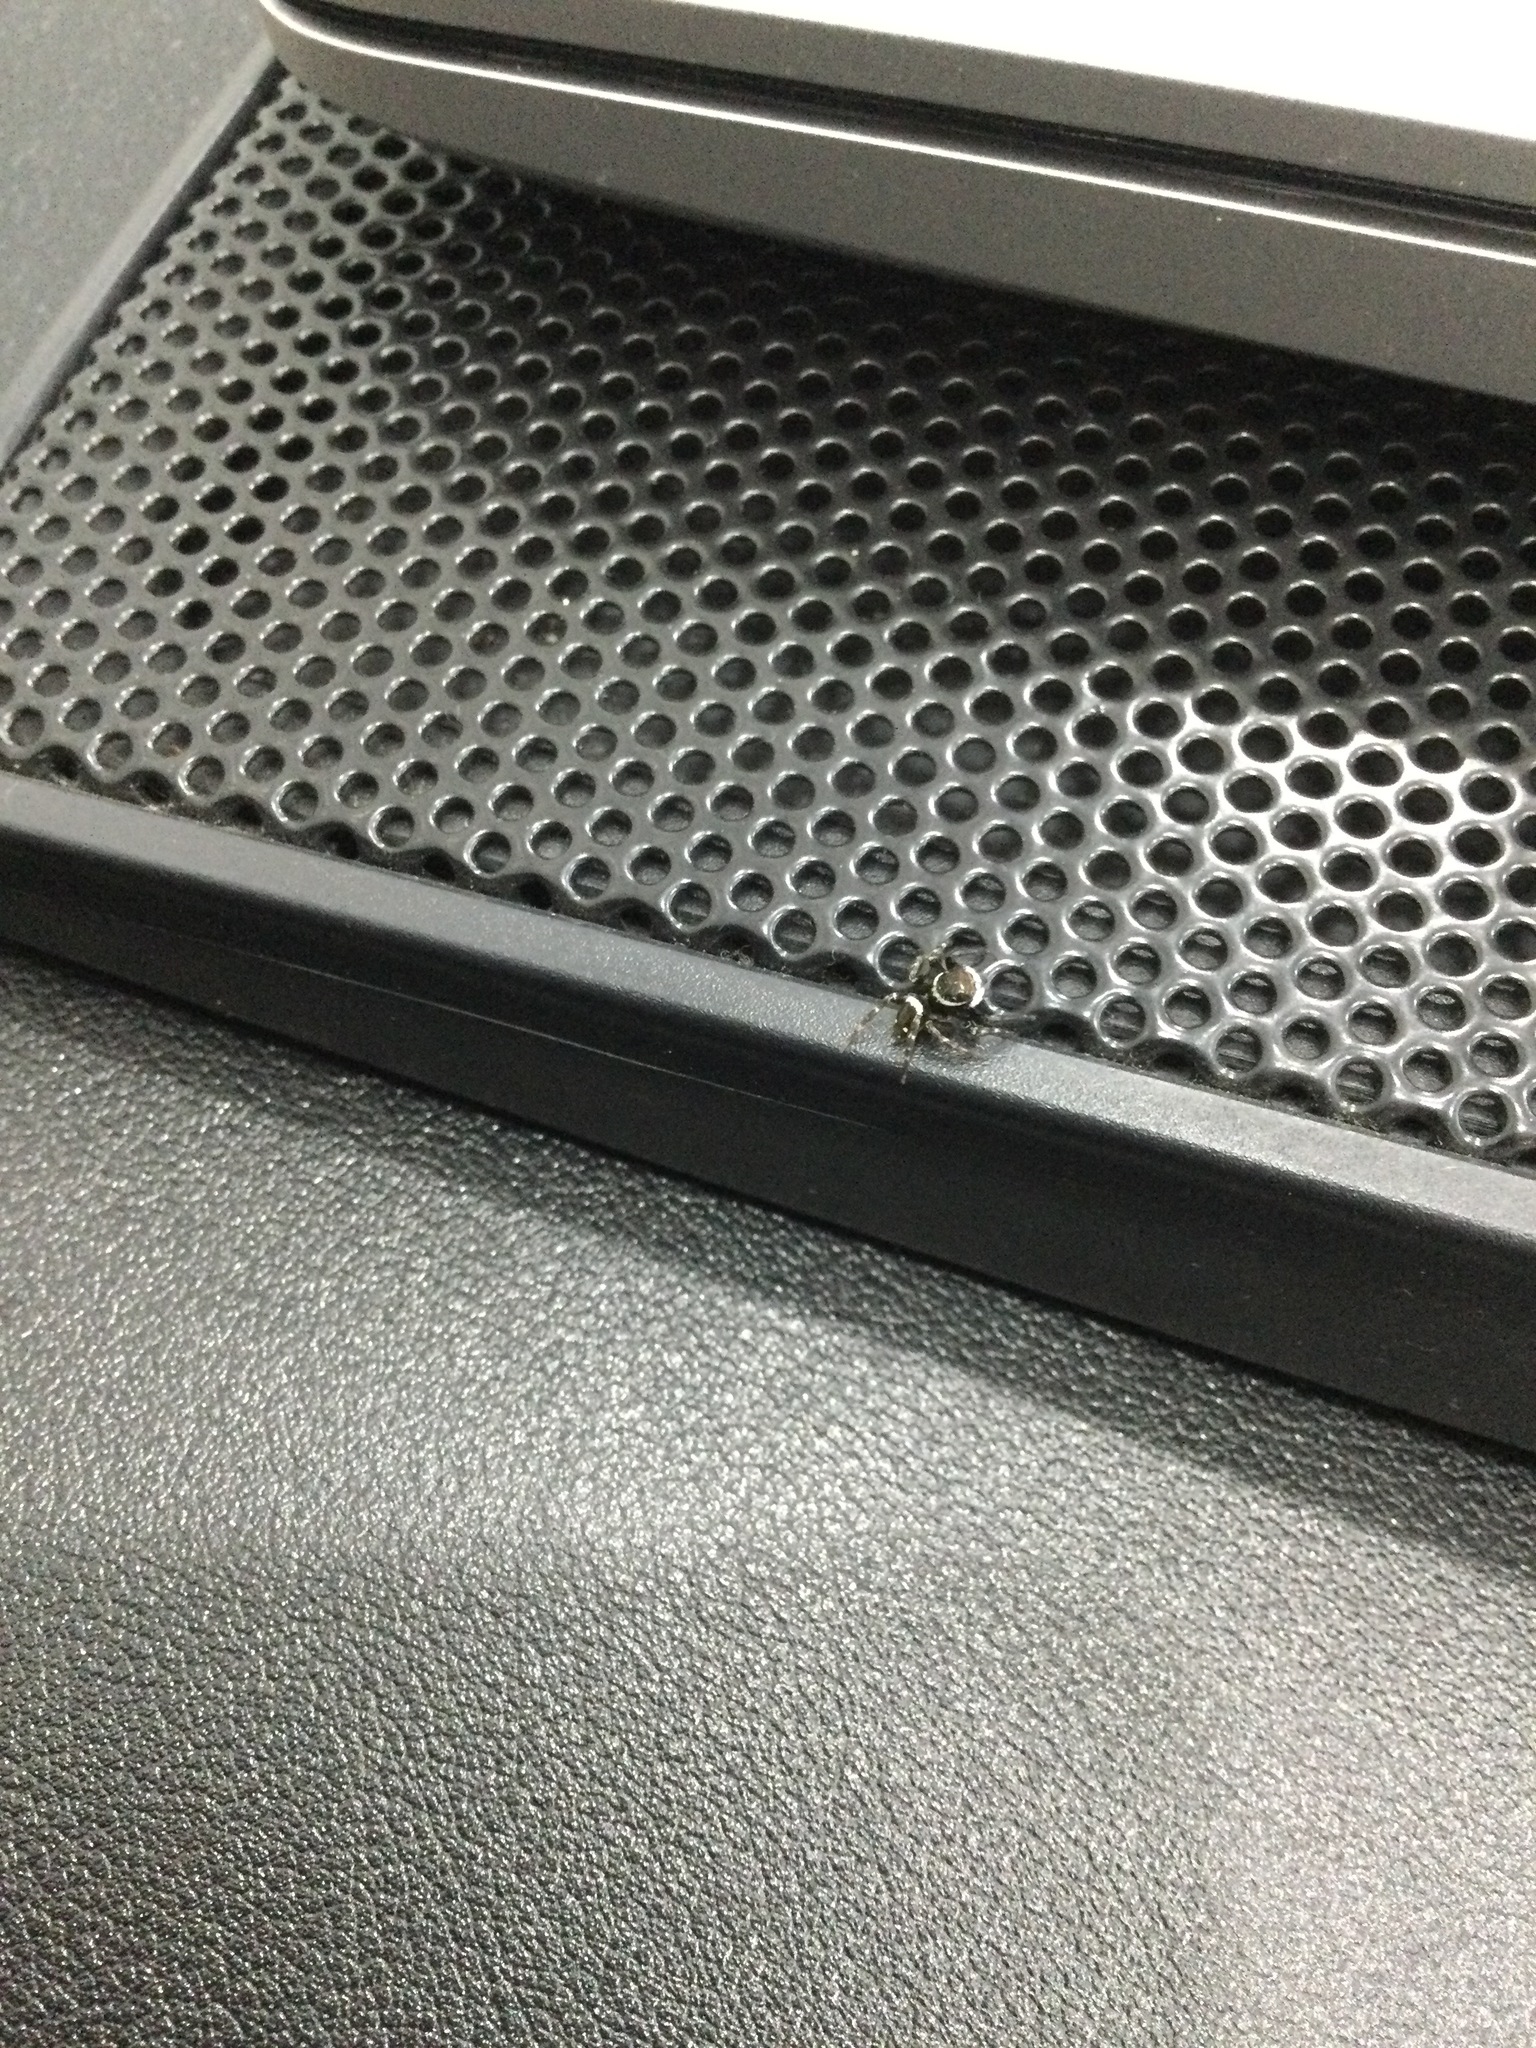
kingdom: Animalia
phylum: Arthropoda
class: Arachnida
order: Araneae
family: Salticidae
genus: Hasarius
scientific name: Hasarius adansoni
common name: Jumping spider
